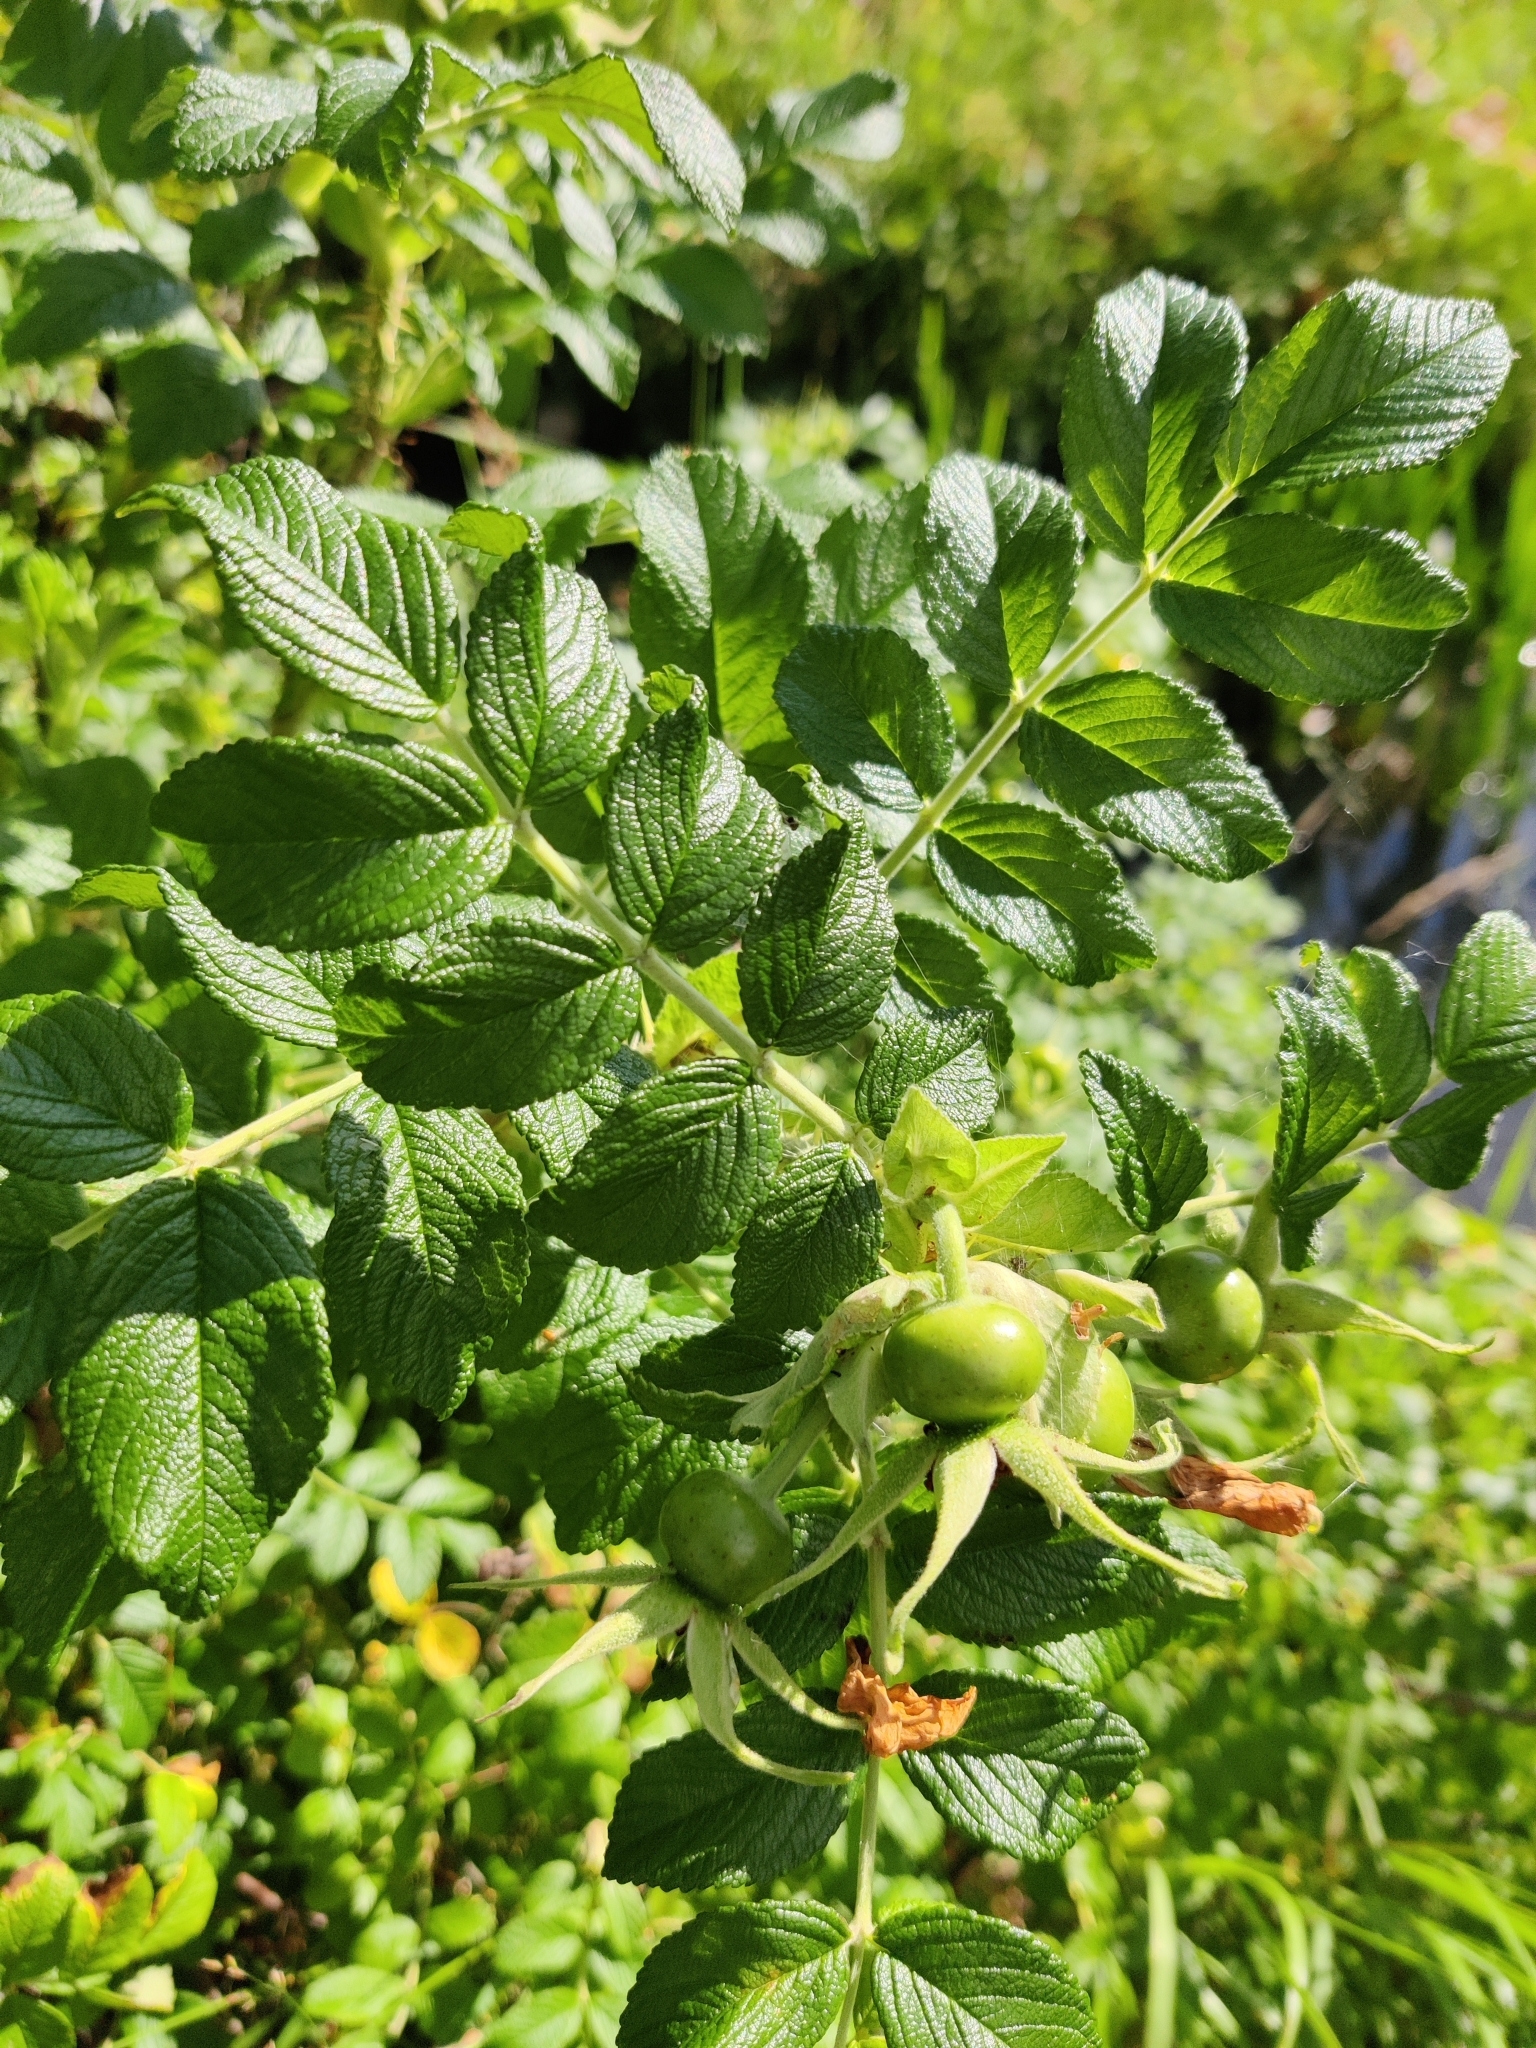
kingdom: Plantae
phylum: Tracheophyta
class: Magnoliopsida
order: Rosales
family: Rosaceae
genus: Rosa
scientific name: Rosa rugosa
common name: Japanese rose
